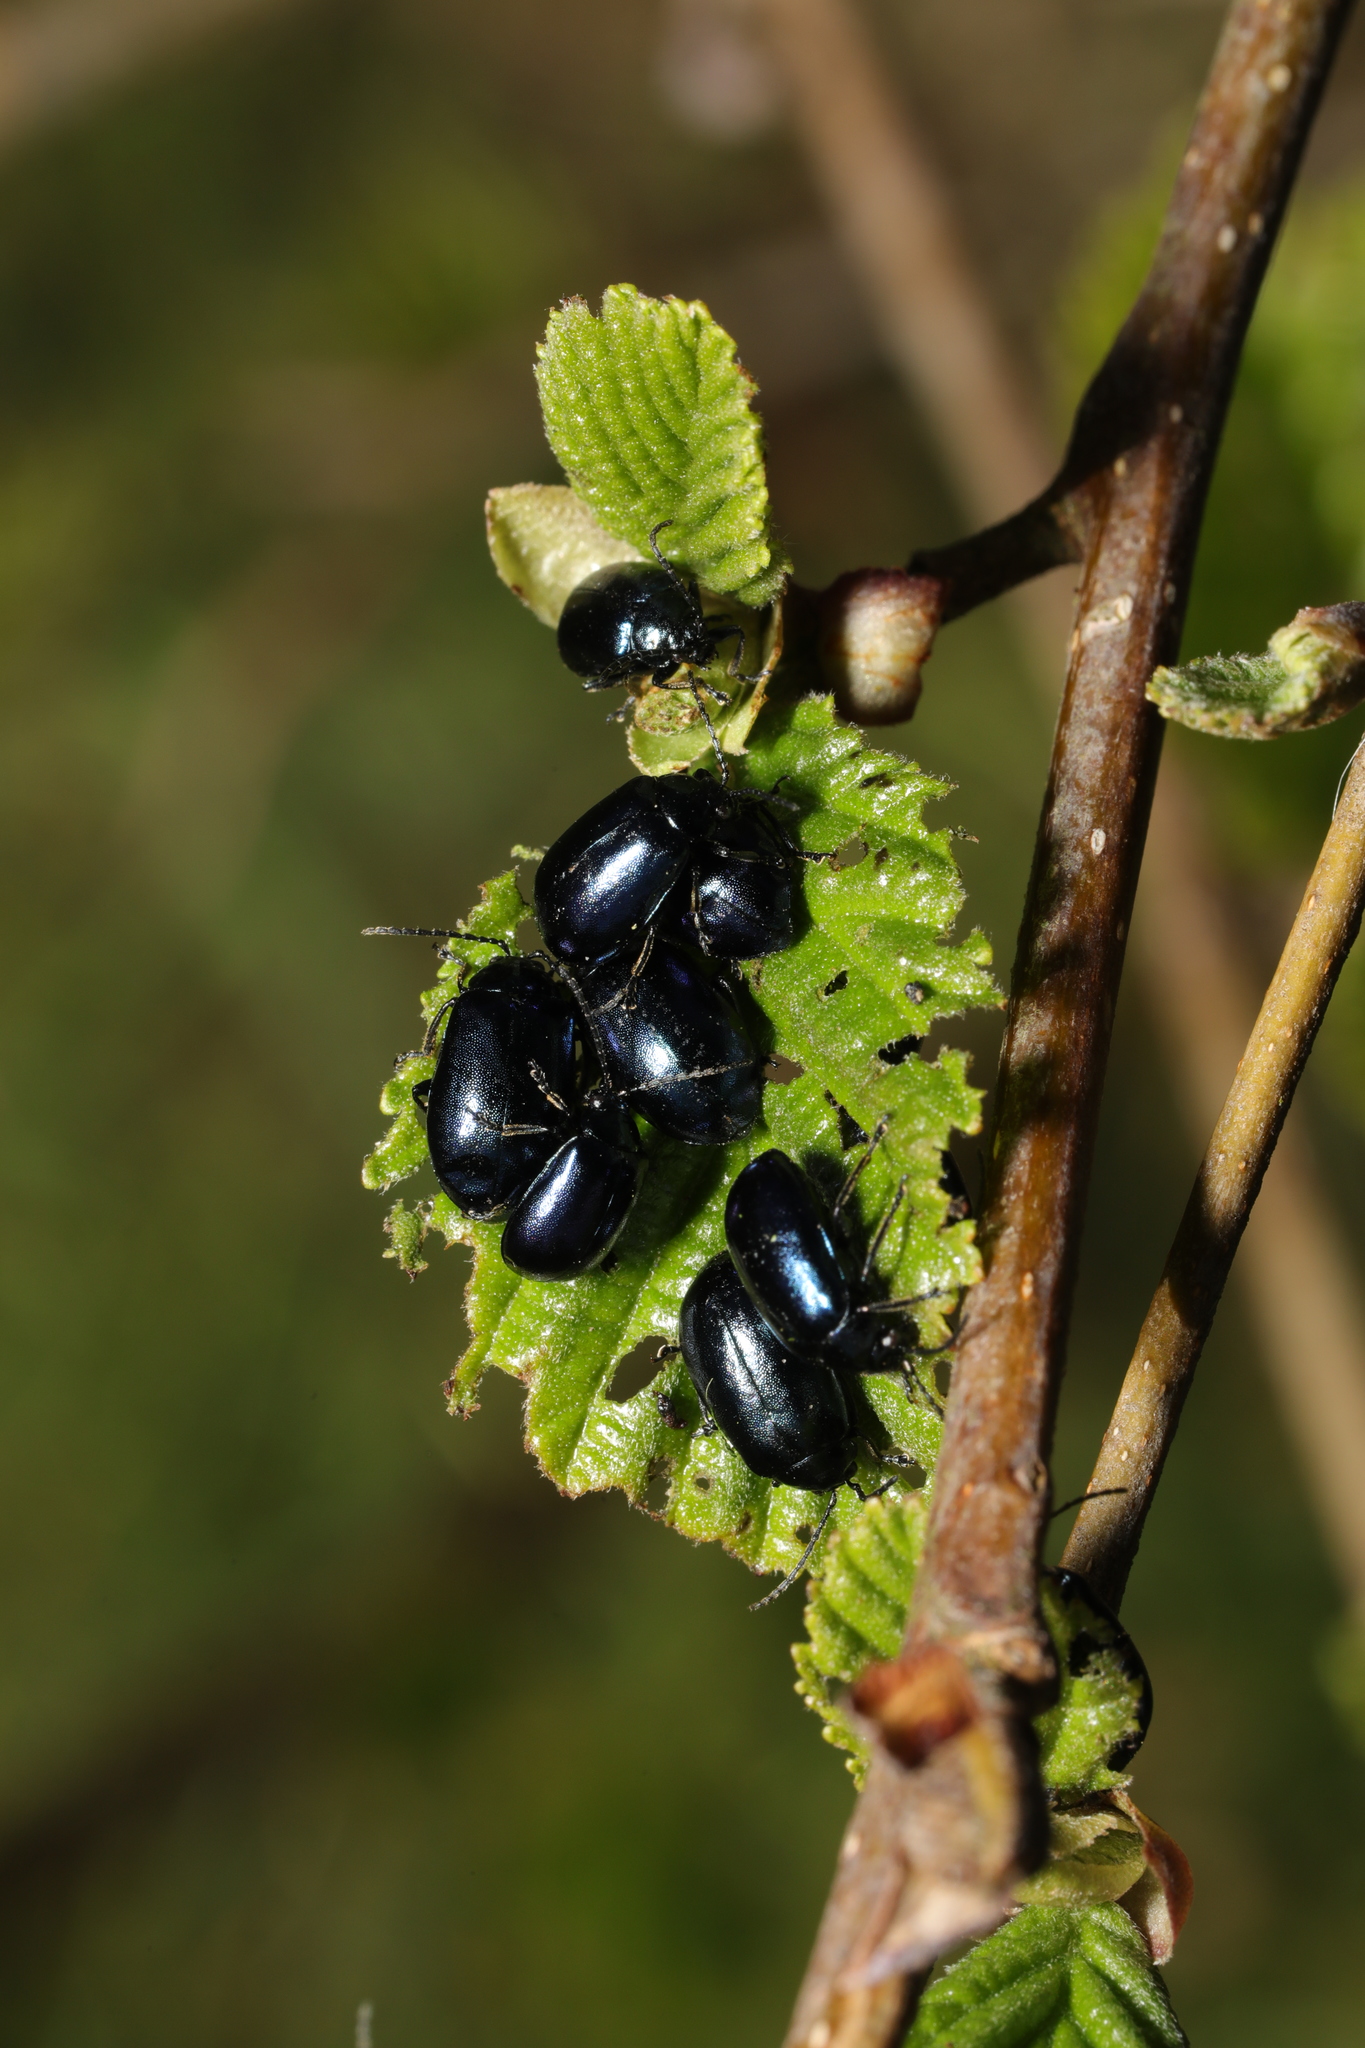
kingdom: Animalia
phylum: Arthropoda
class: Insecta
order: Coleoptera
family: Chrysomelidae
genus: Agelastica
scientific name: Agelastica alni
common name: Alder leaf beetle
